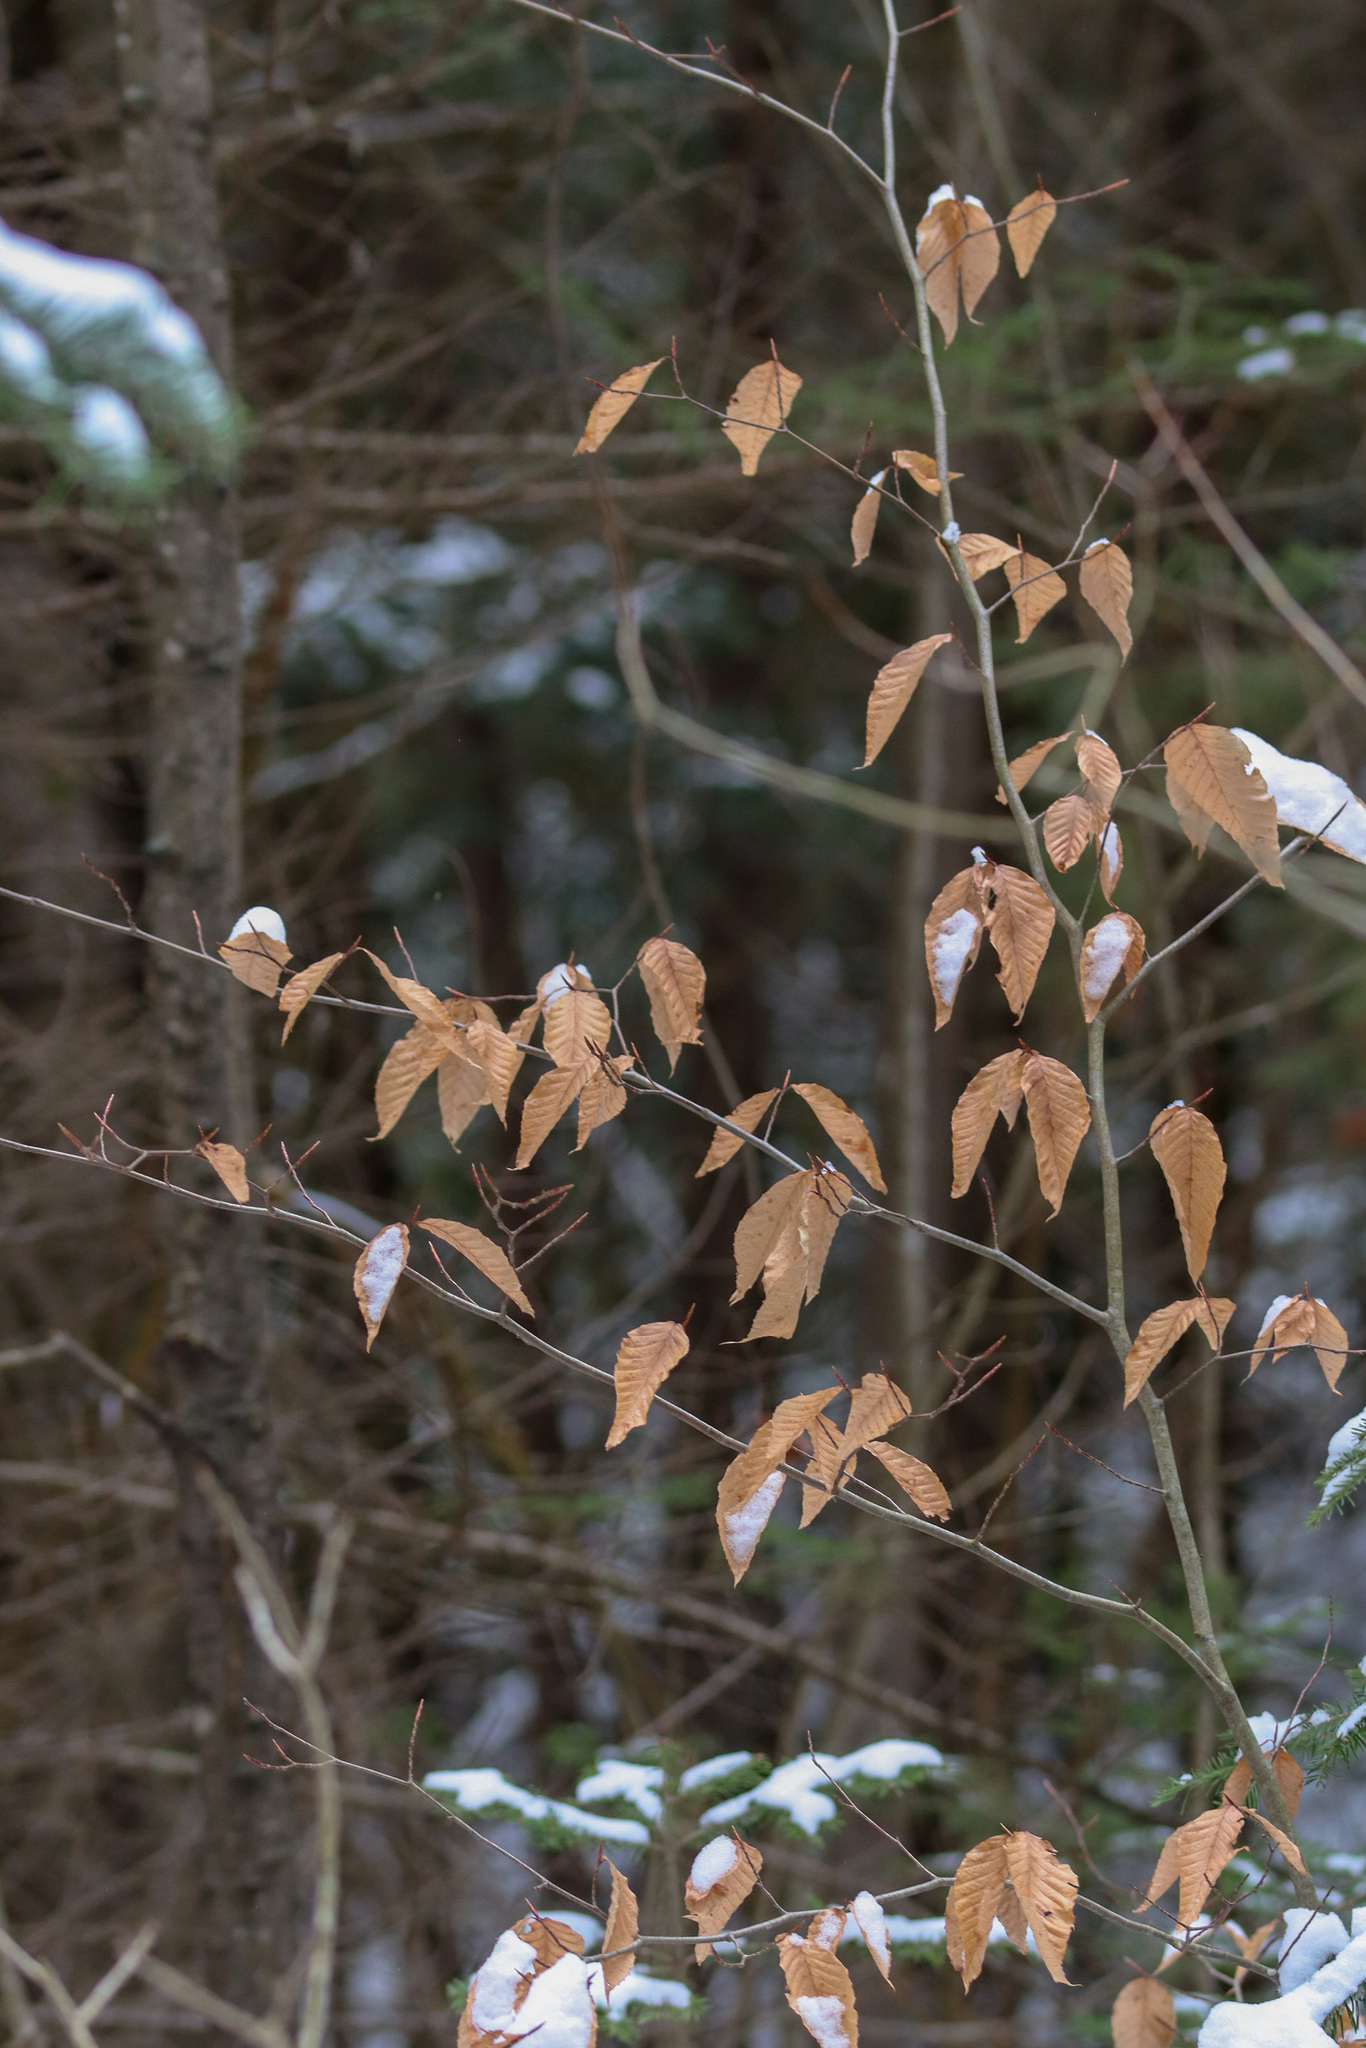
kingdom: Plantae
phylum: Tracheophyta
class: Magnoliopsida
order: Fagales
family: Fagaceae
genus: Fagus
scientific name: Fagus grandifolia
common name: American beech
